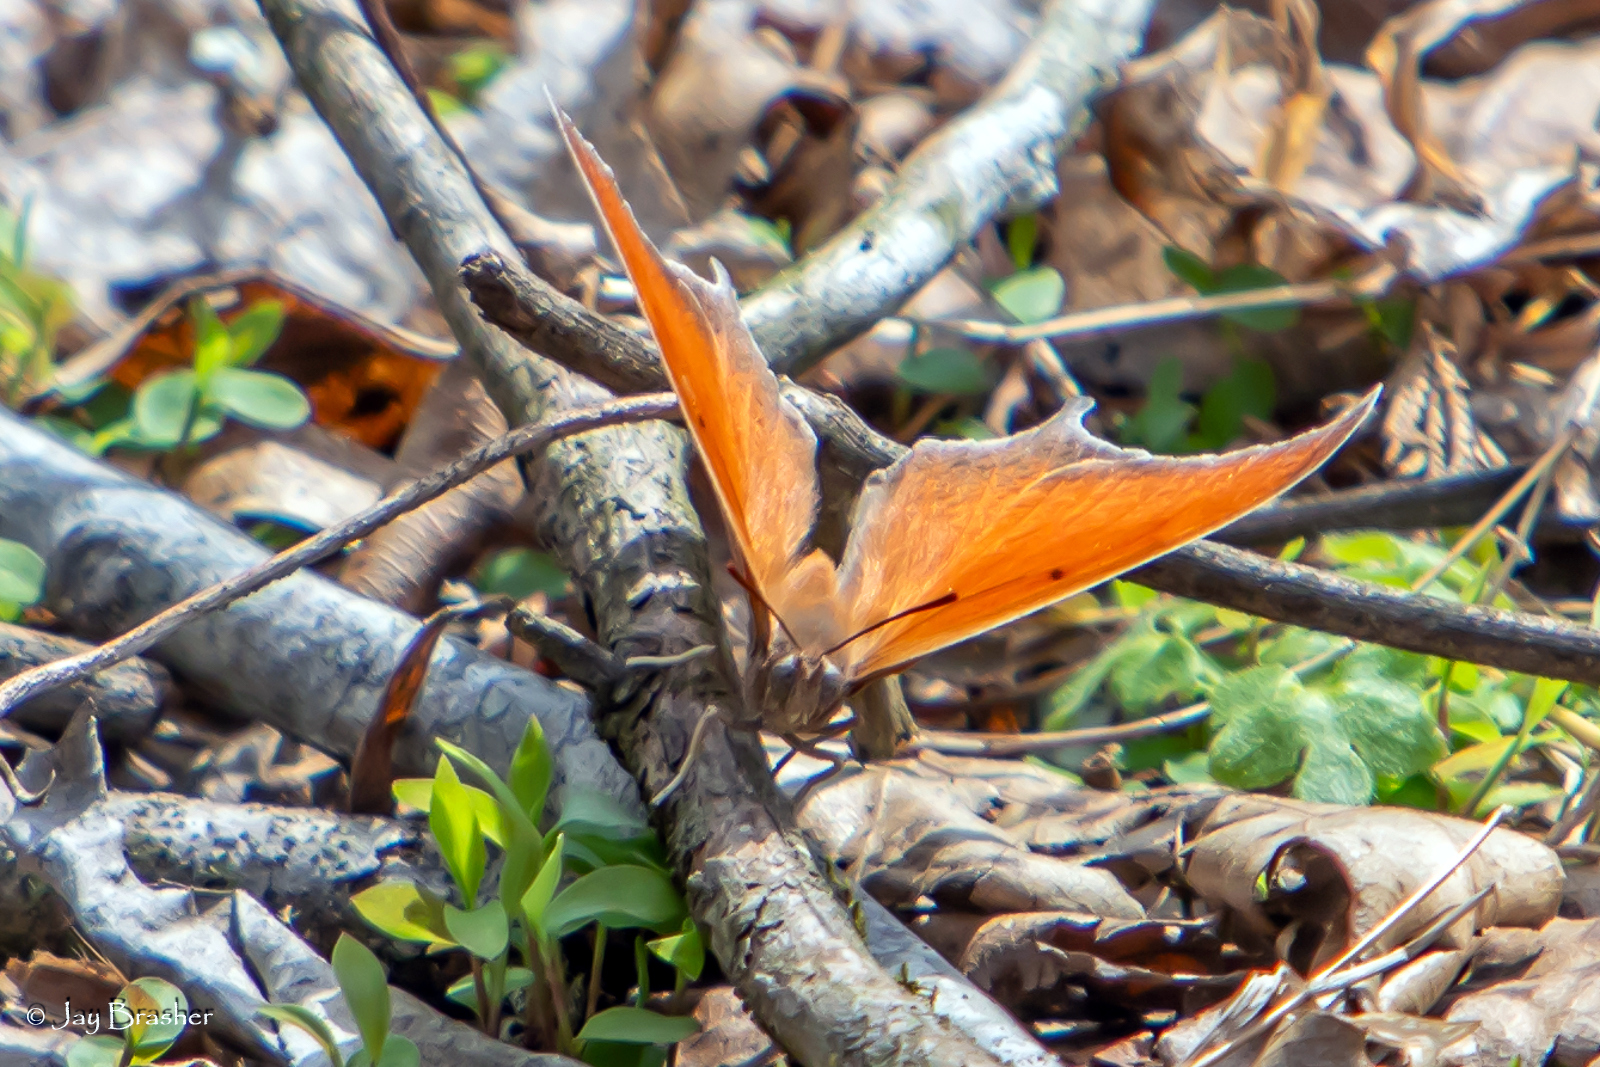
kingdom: Animalia
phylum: Arthropoda
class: Insecta
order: Lepidoptera
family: Nymphalidae
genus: Anaea
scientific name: Anaea andria
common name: Goatweed leafwing
